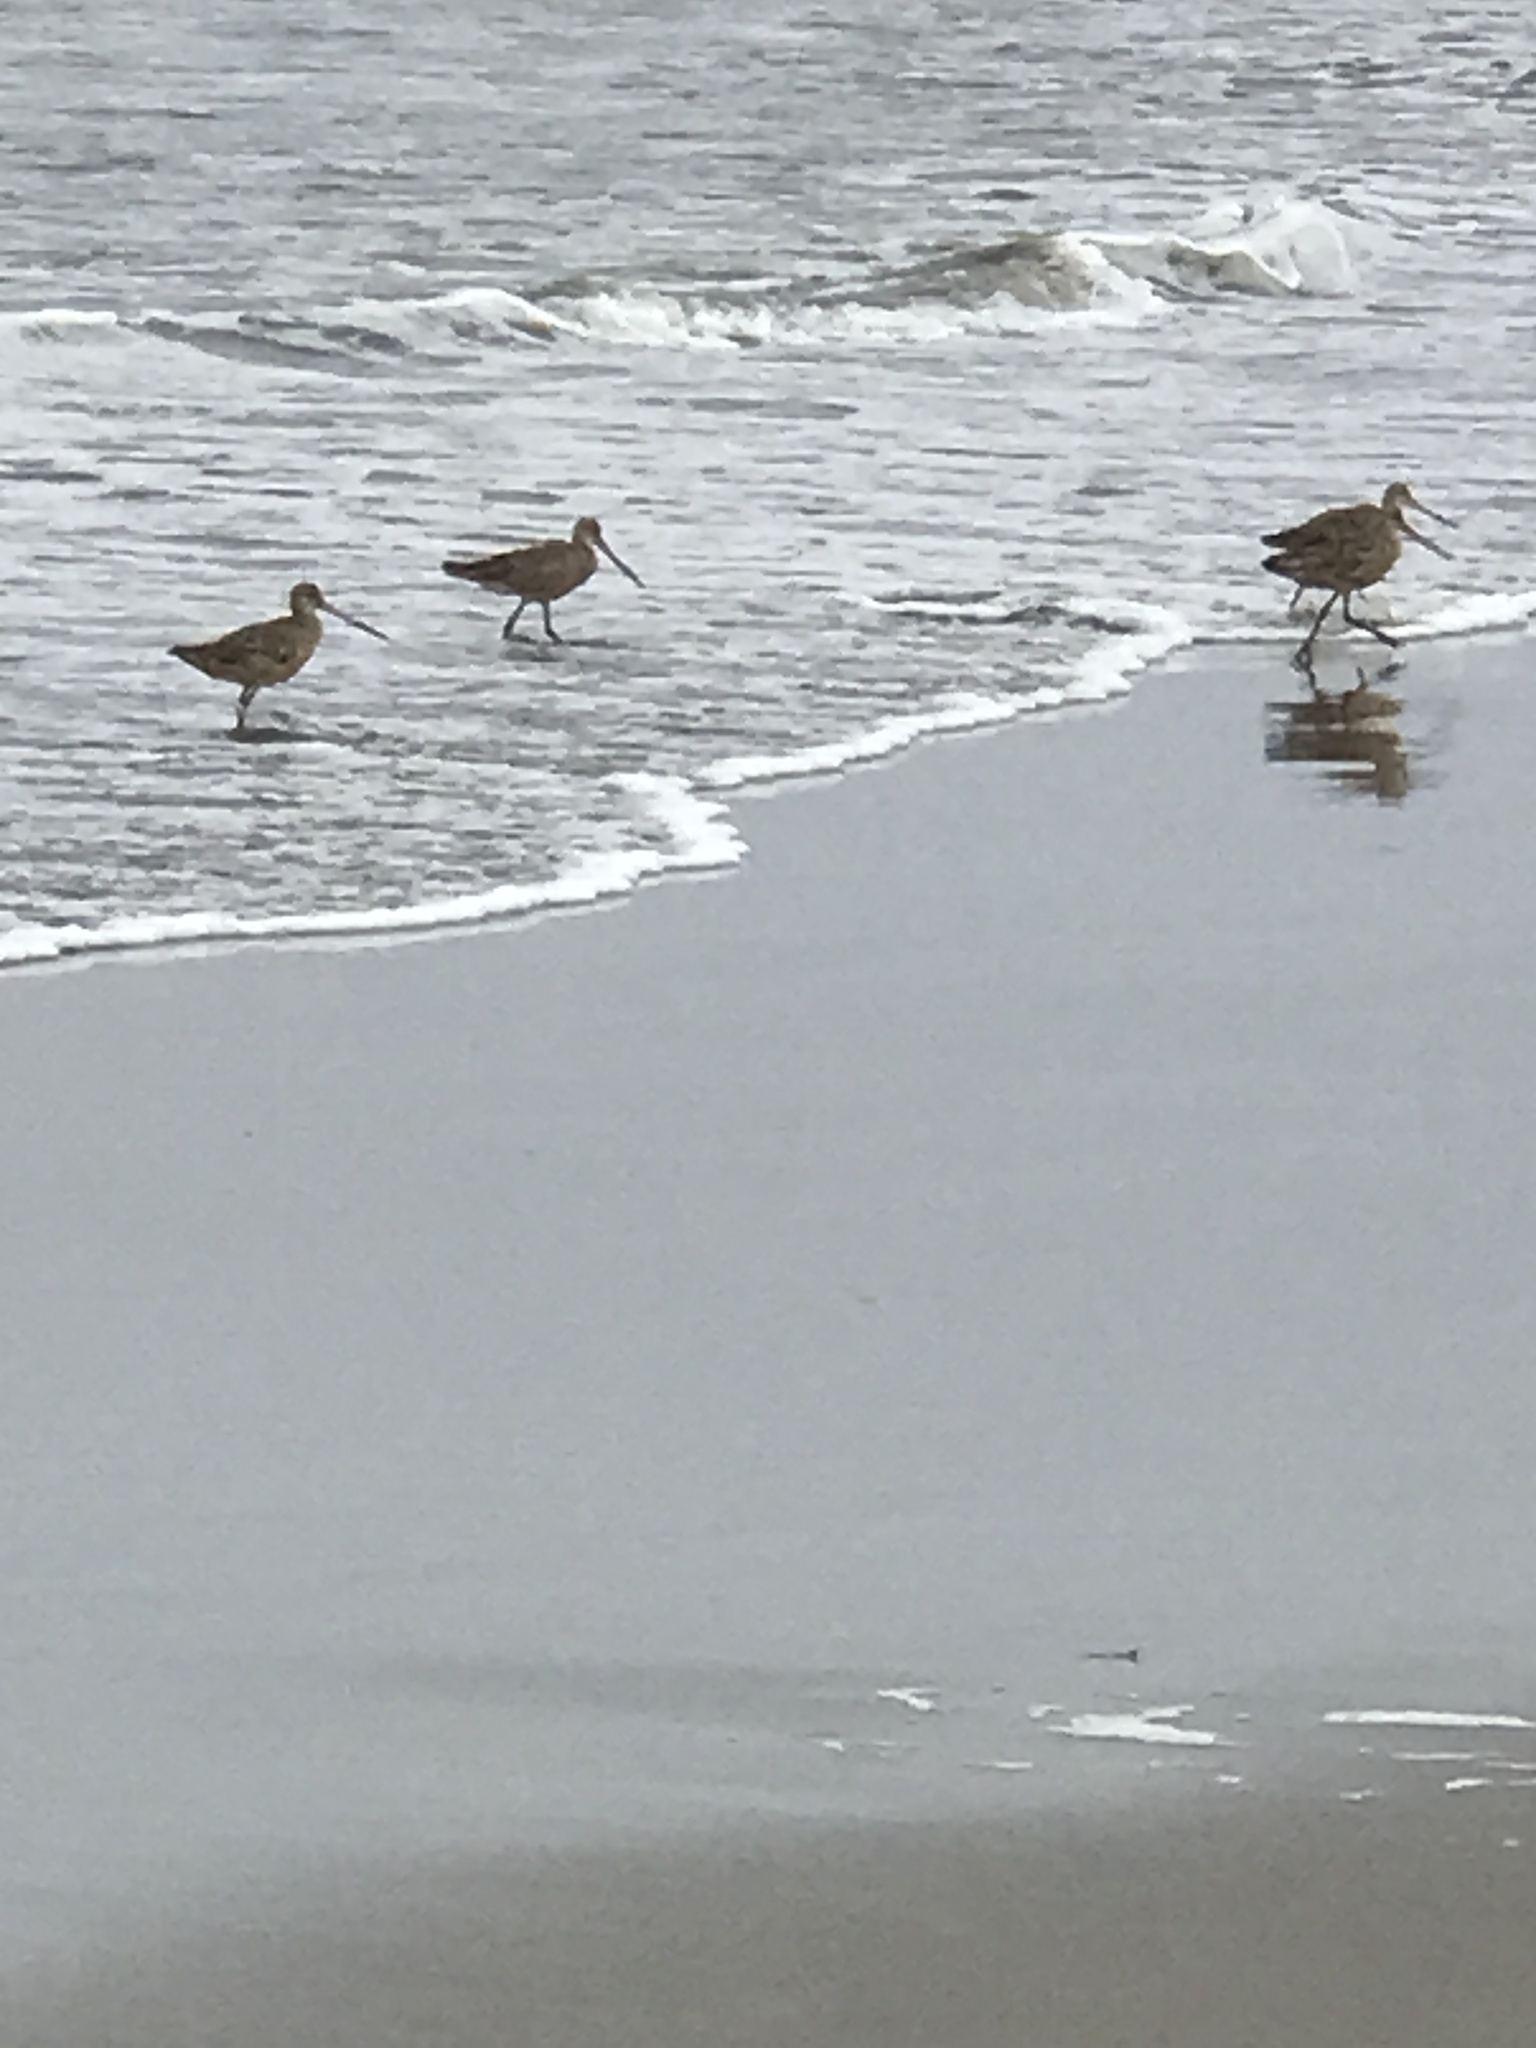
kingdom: Animalia
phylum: Chordata
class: Aves
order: Charadriiformes
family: Scolopacidae
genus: Limosa
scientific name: Limosa fedoa
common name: Marbled godwit
